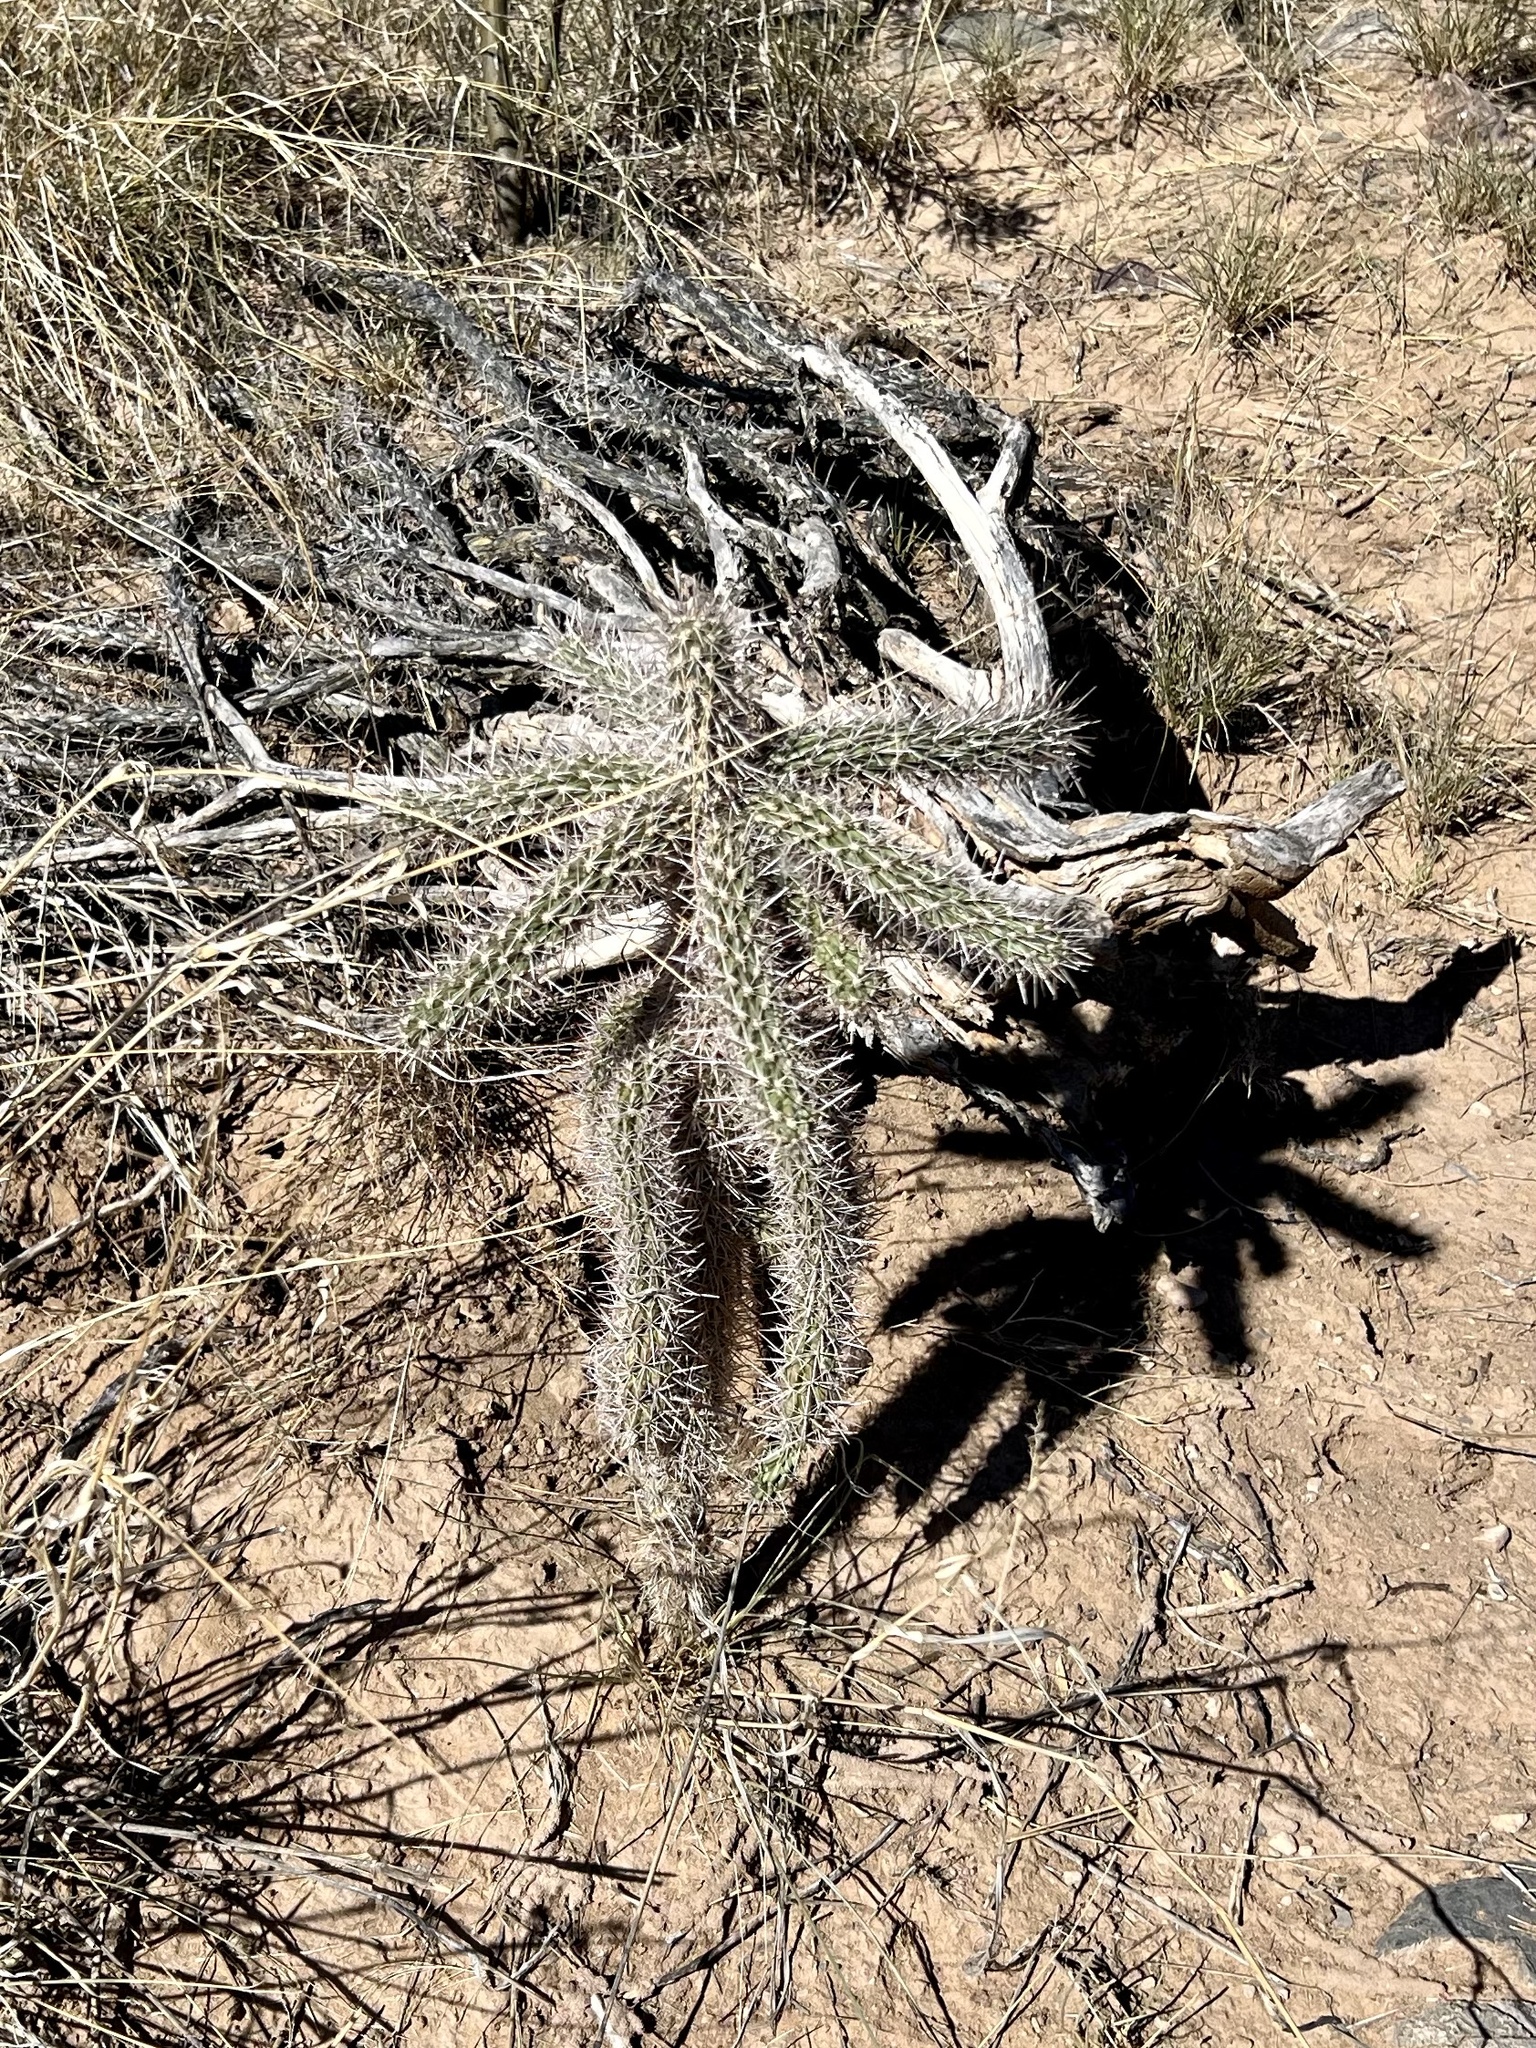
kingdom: Plantae
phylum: Tracheophyta
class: Magnoliopsida
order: Caryophyllales
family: Cactaceae
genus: Cylindropuntia
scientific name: Cylindropuntia imbricata
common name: Candelabrum cactus
